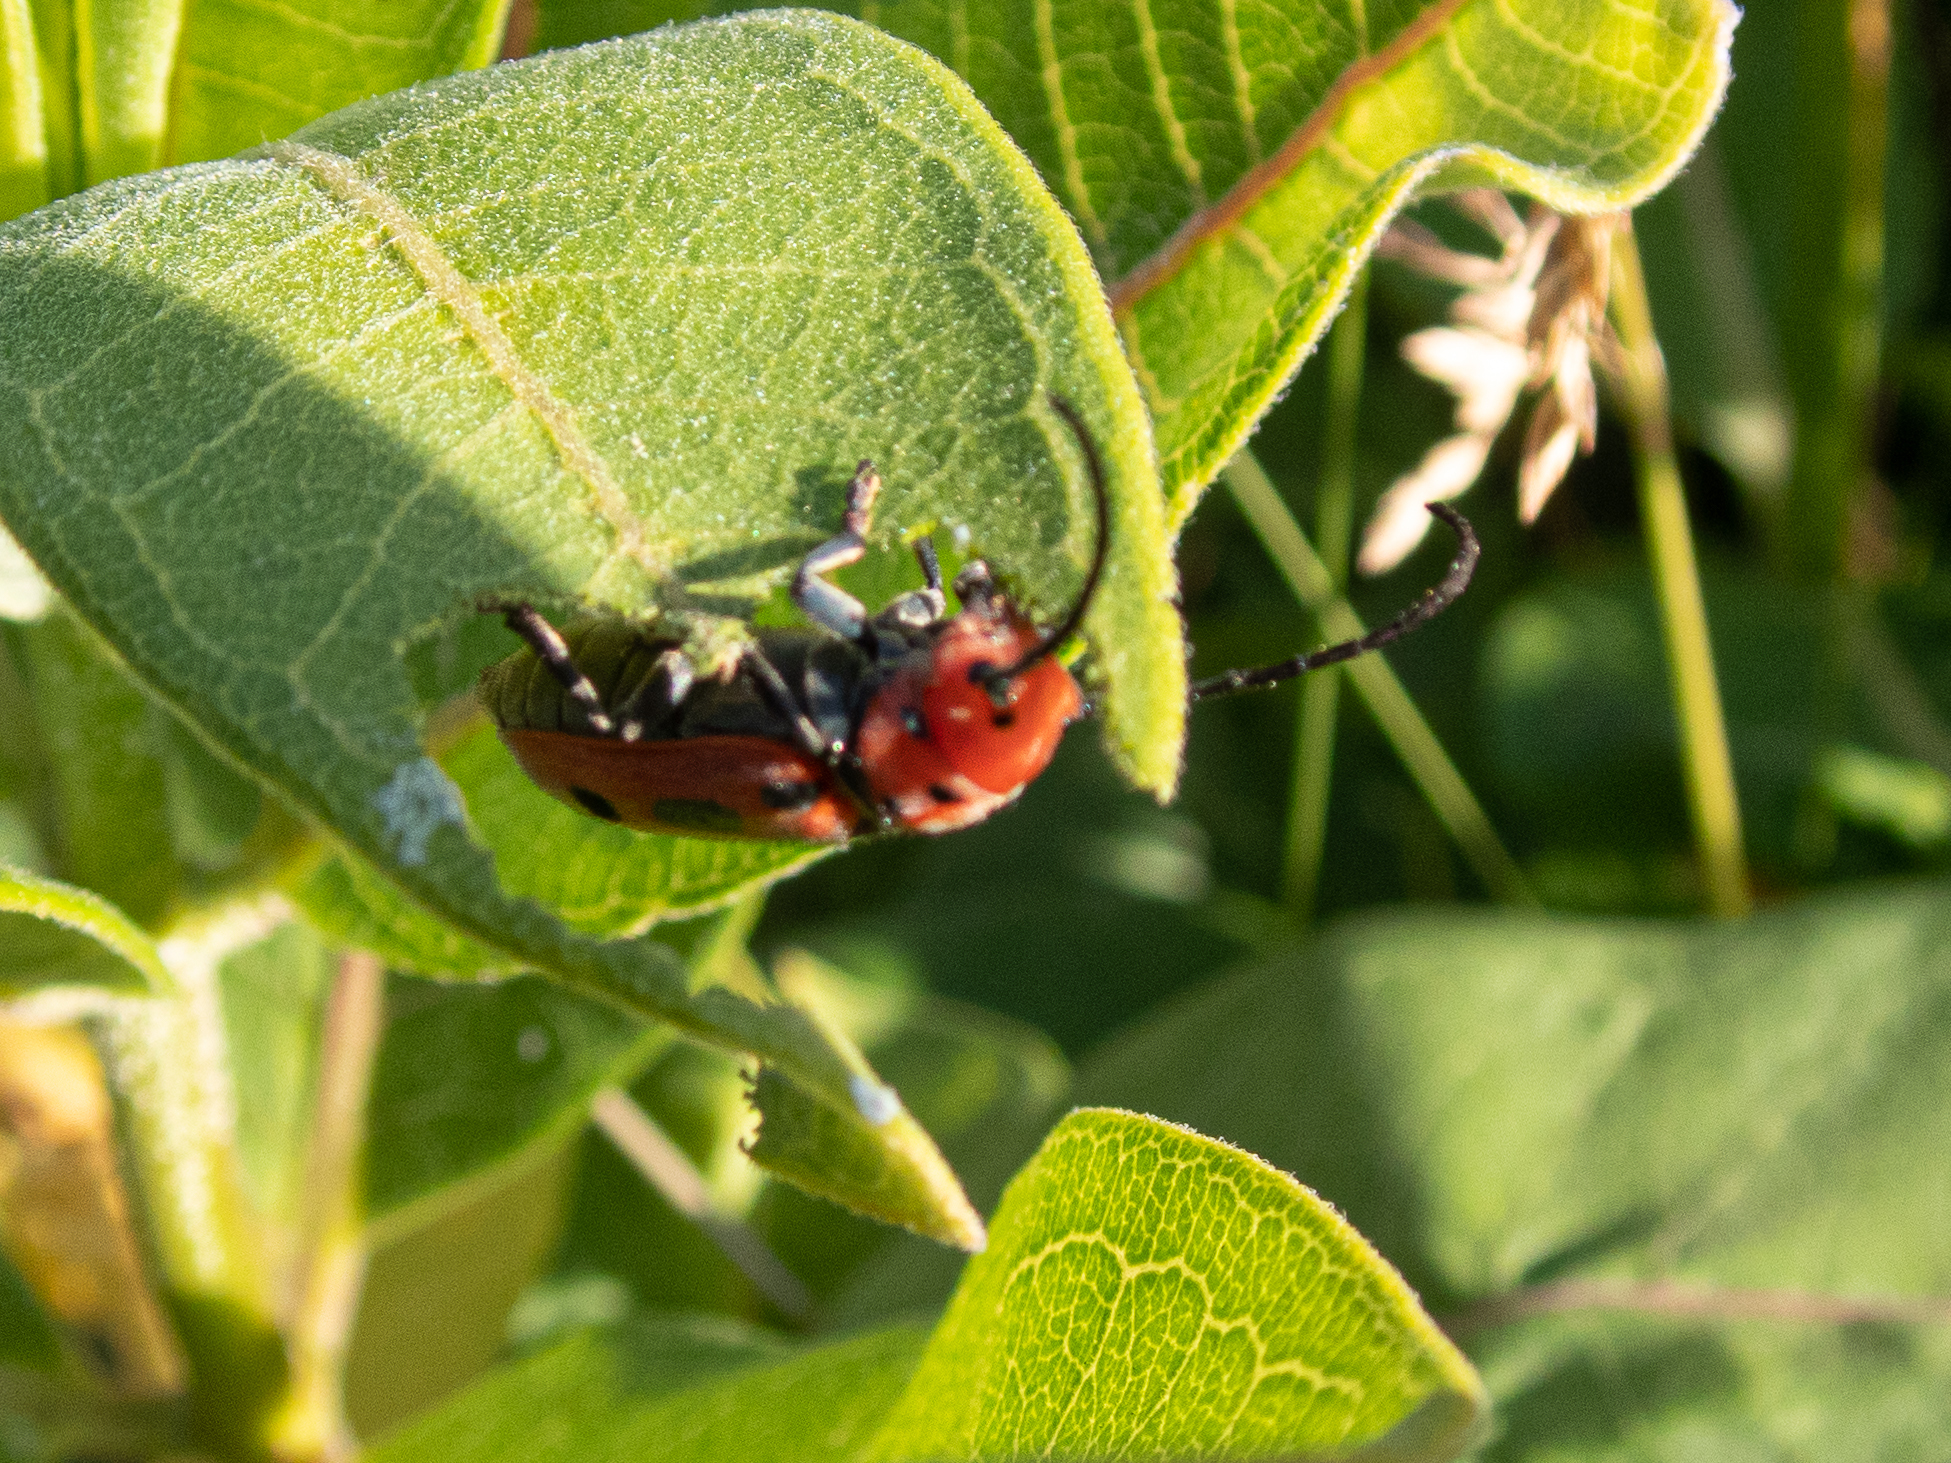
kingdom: Animalia
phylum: Arthropoda
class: Insecta
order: Coleoptera
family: Cerambycidae
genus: Tetraopes
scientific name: Tetraopes tetrophthalmus
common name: Red milkweed beetle
